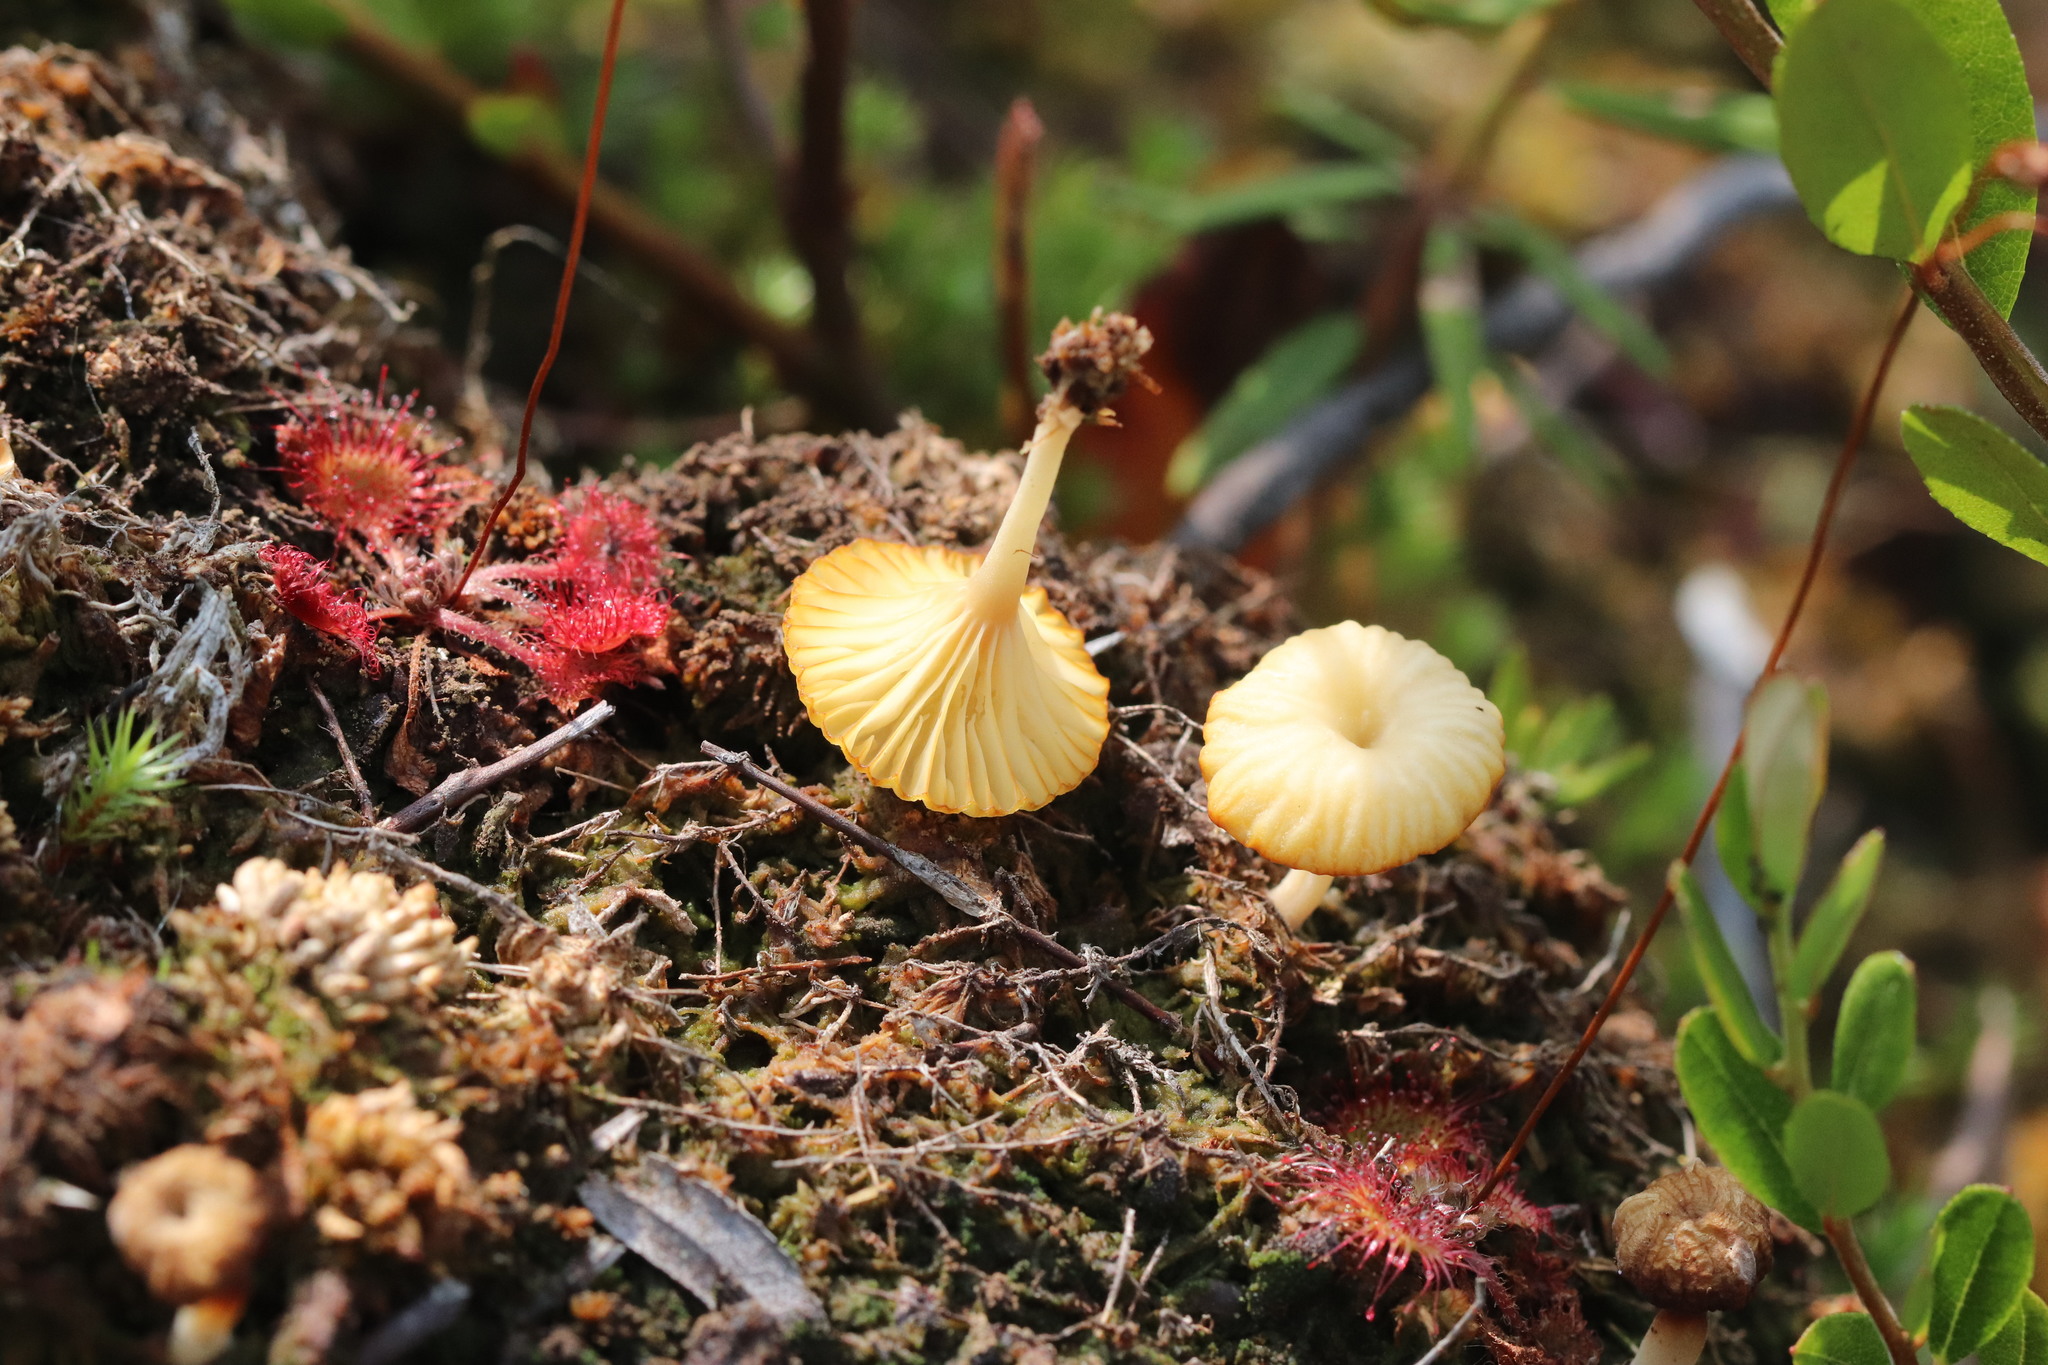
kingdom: Fungi
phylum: Basidiomycota
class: Agaricomycetes
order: Agaricales
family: Hygrophoraceae
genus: Lichenomphalia
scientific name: Lichenomphalia
